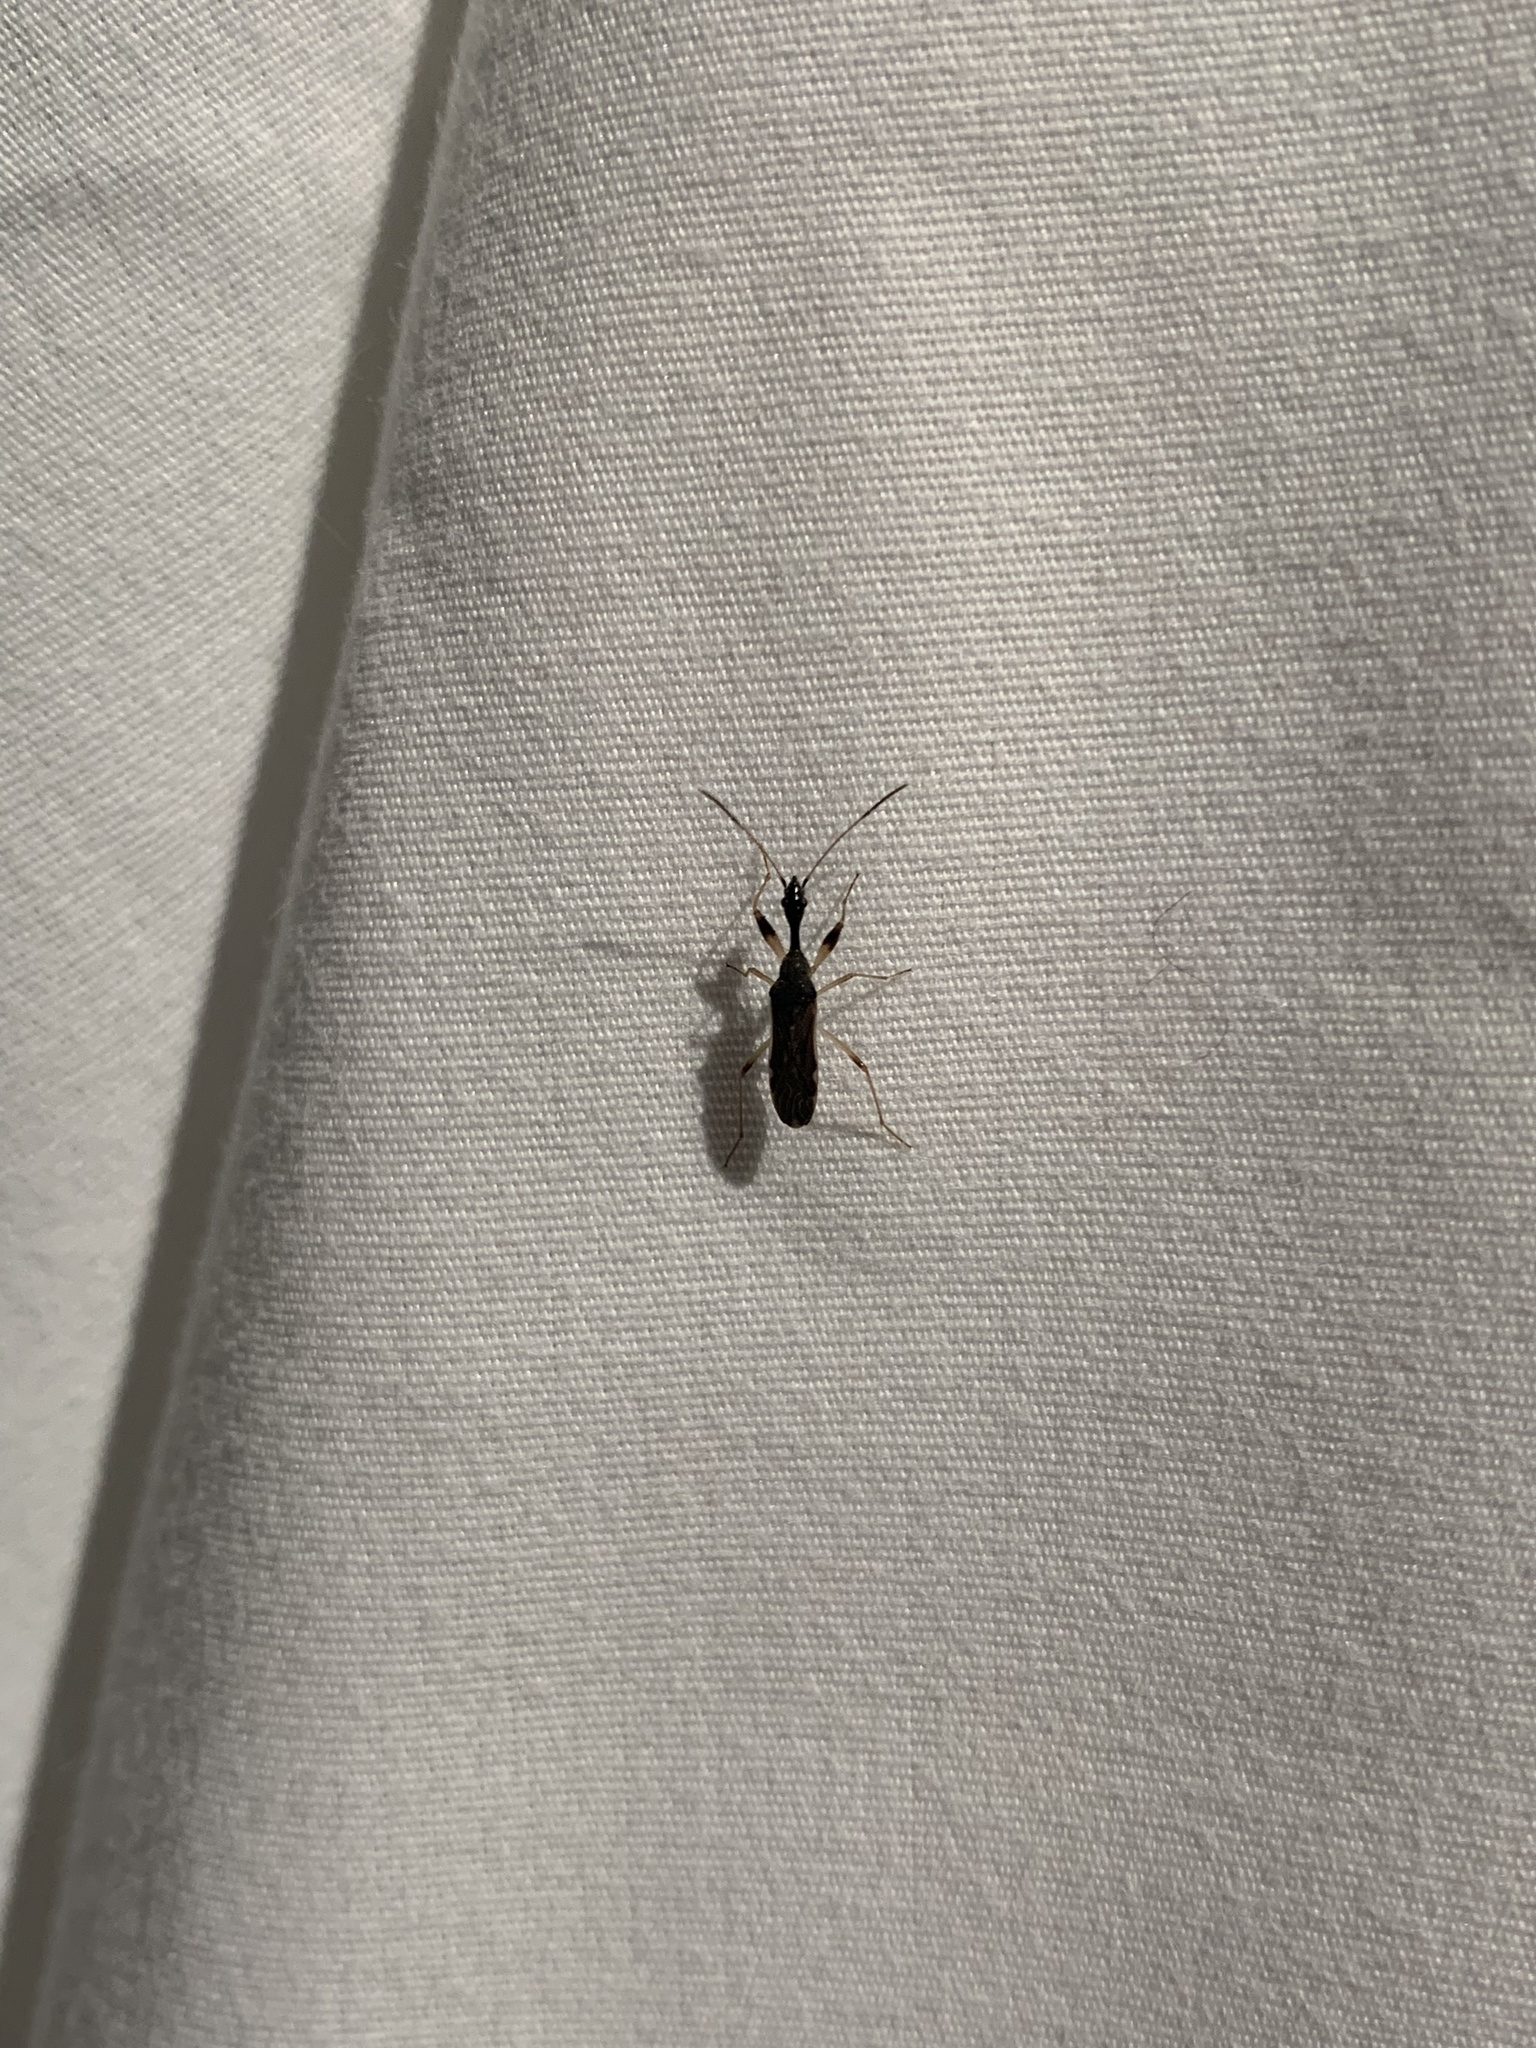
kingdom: Animalia
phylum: Arthropoda
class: Insecta
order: Hemiptera
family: Rhyparochromidae
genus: Myodocha
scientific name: Myodocha serripes
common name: Long-necked seed bug
